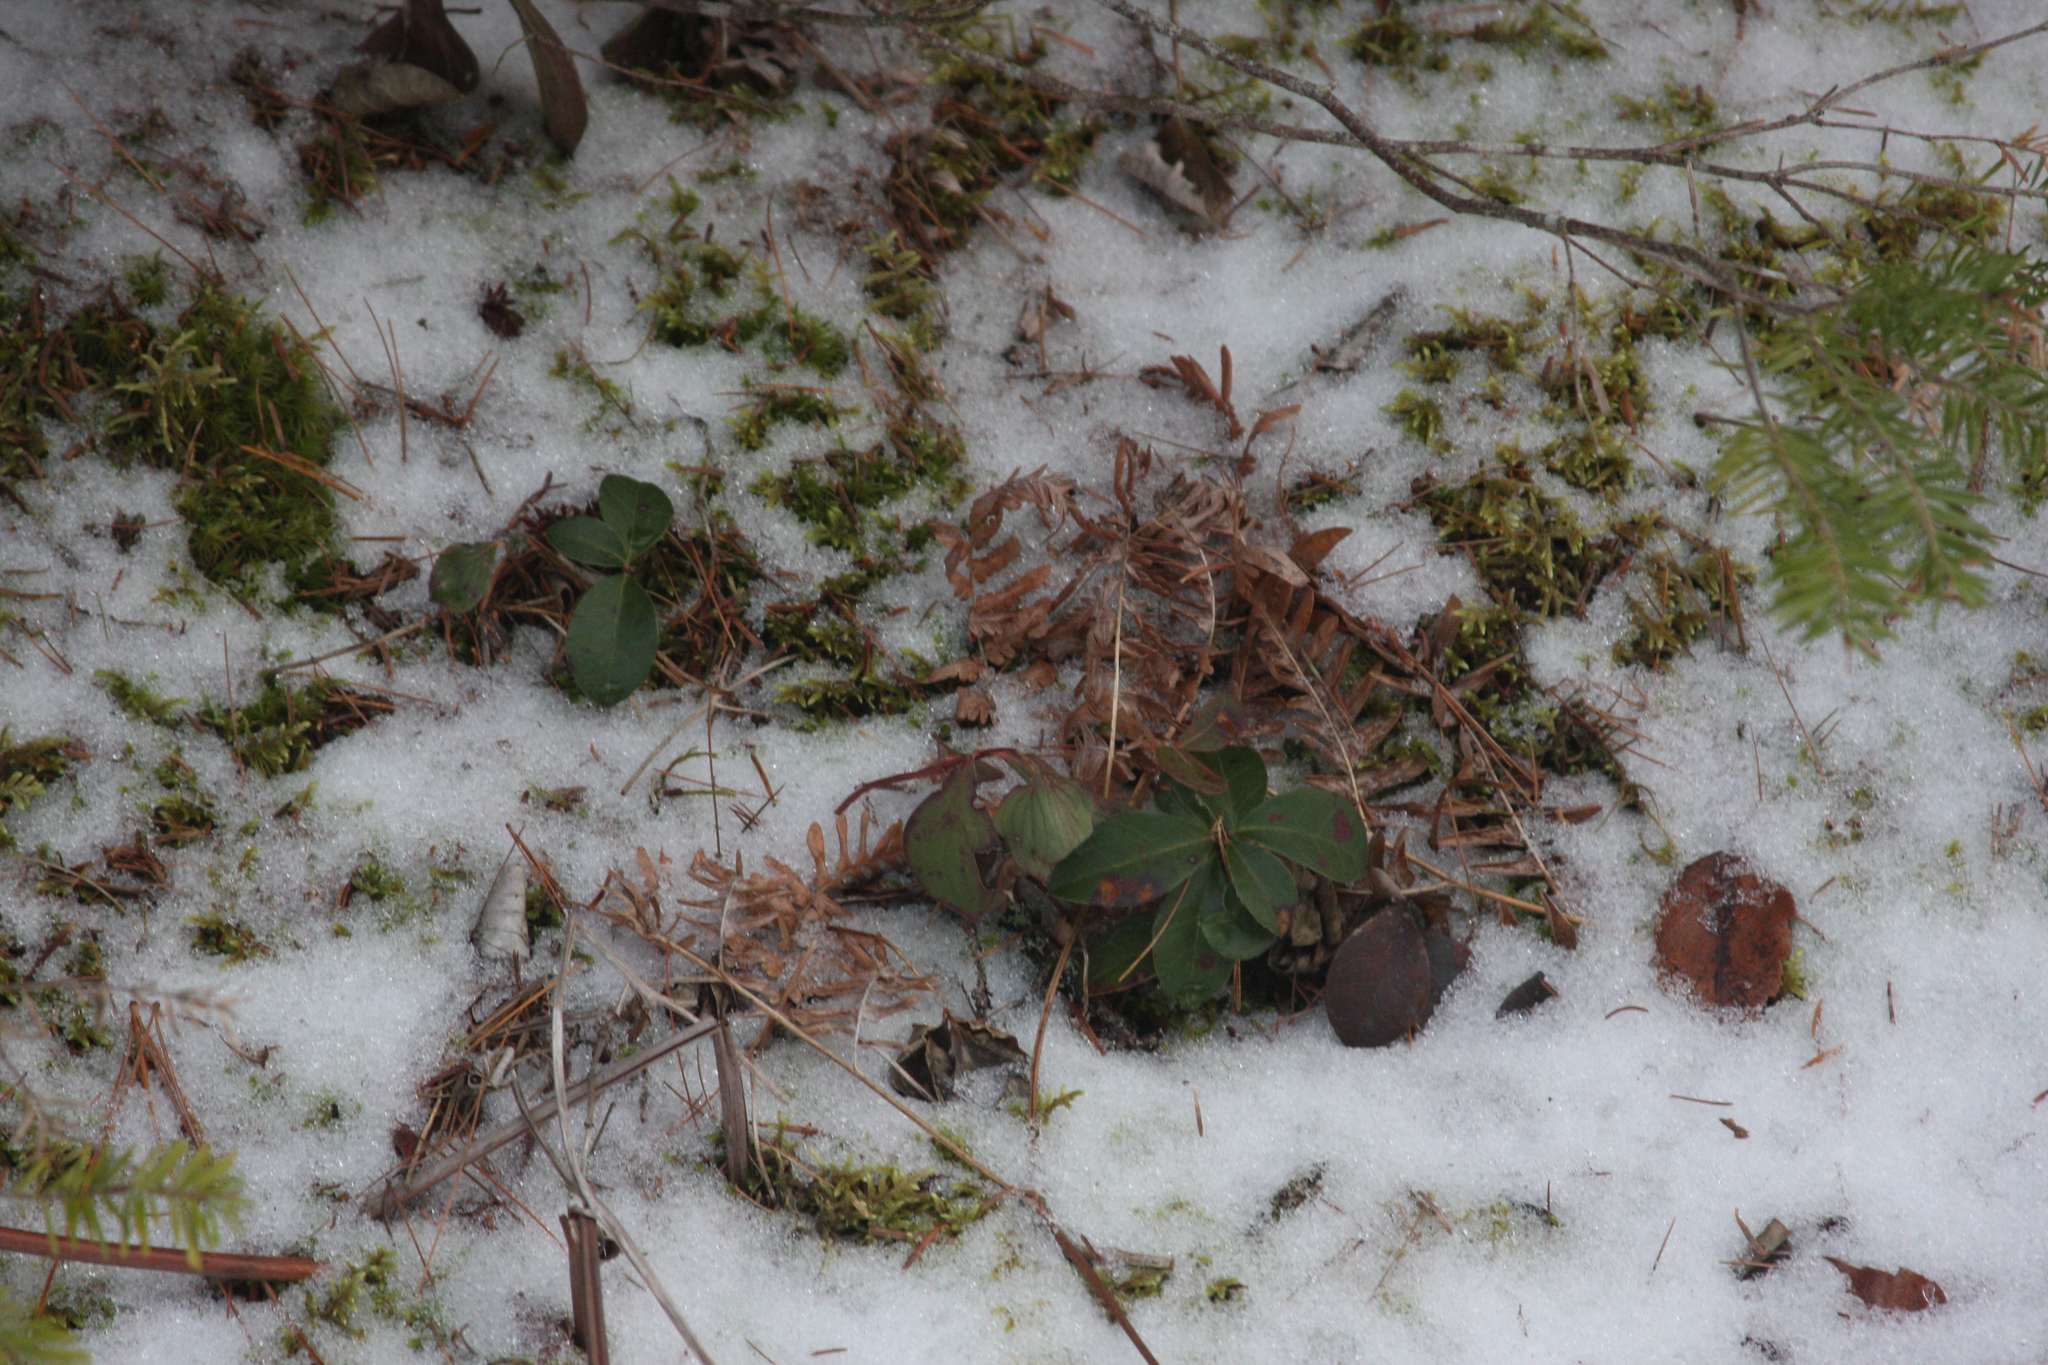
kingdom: Plantae
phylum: Tracheophyta
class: Magnoliopsida
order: Ericales
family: Ericaceae
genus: Gaultheria
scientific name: Gaultheria procumbens
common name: Checkerberry
